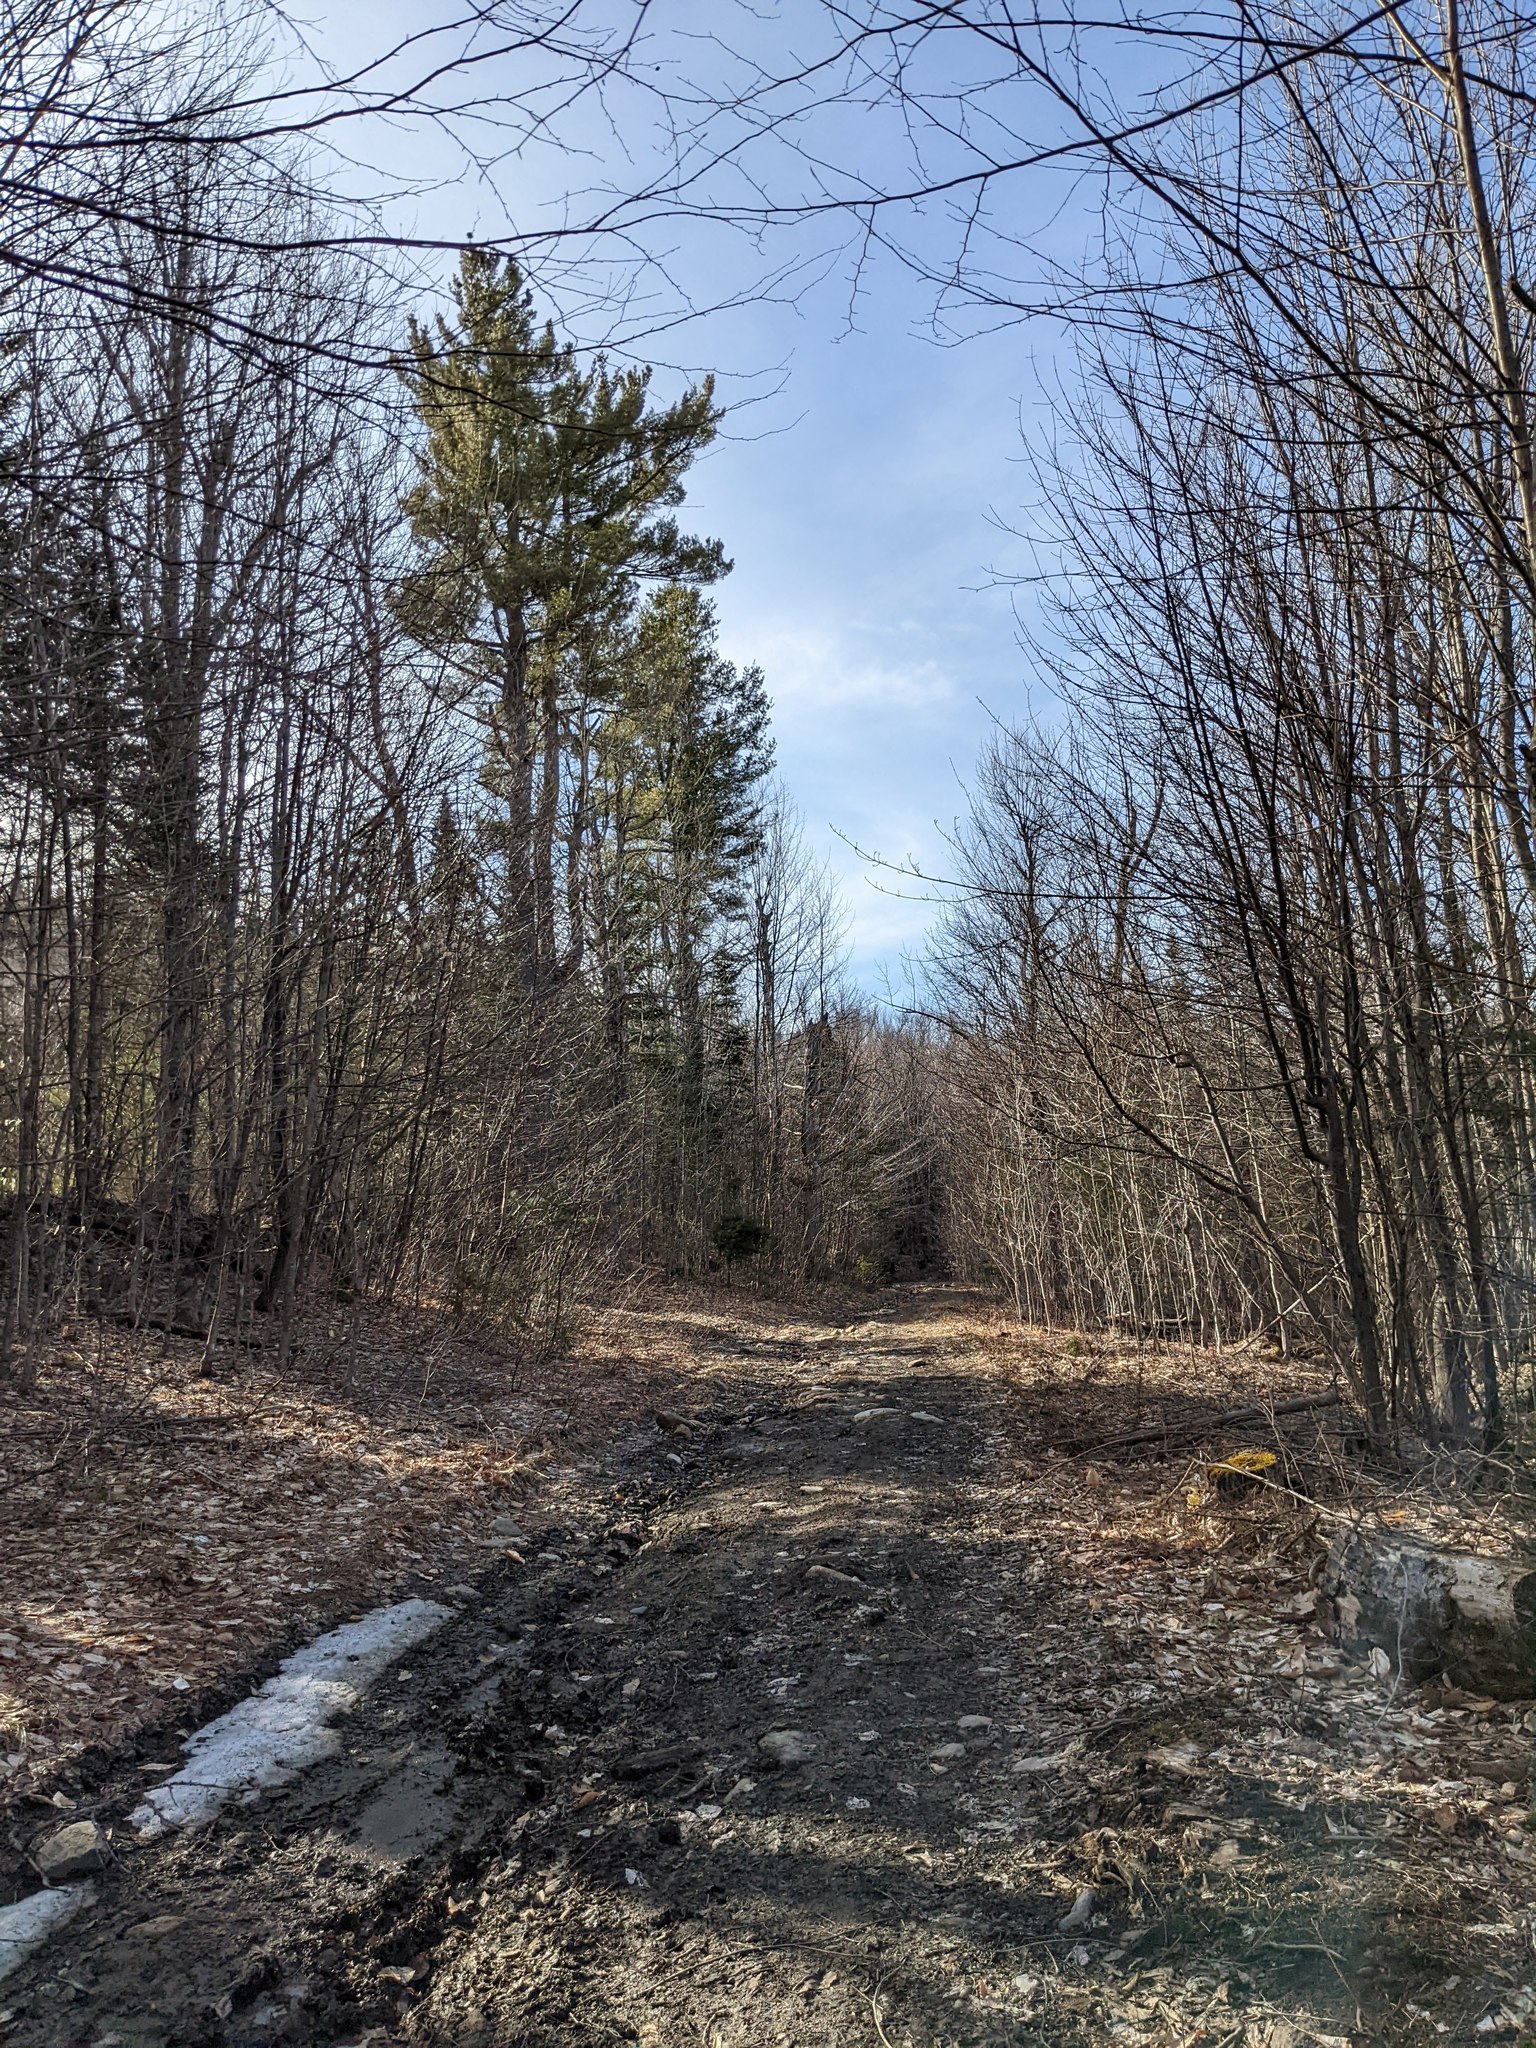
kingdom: Plantae
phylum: Tracheophyta
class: Pinopsida
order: Pinales
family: Pinaceae
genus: Pinus
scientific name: Pinus strobus
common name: Weymouth pine
